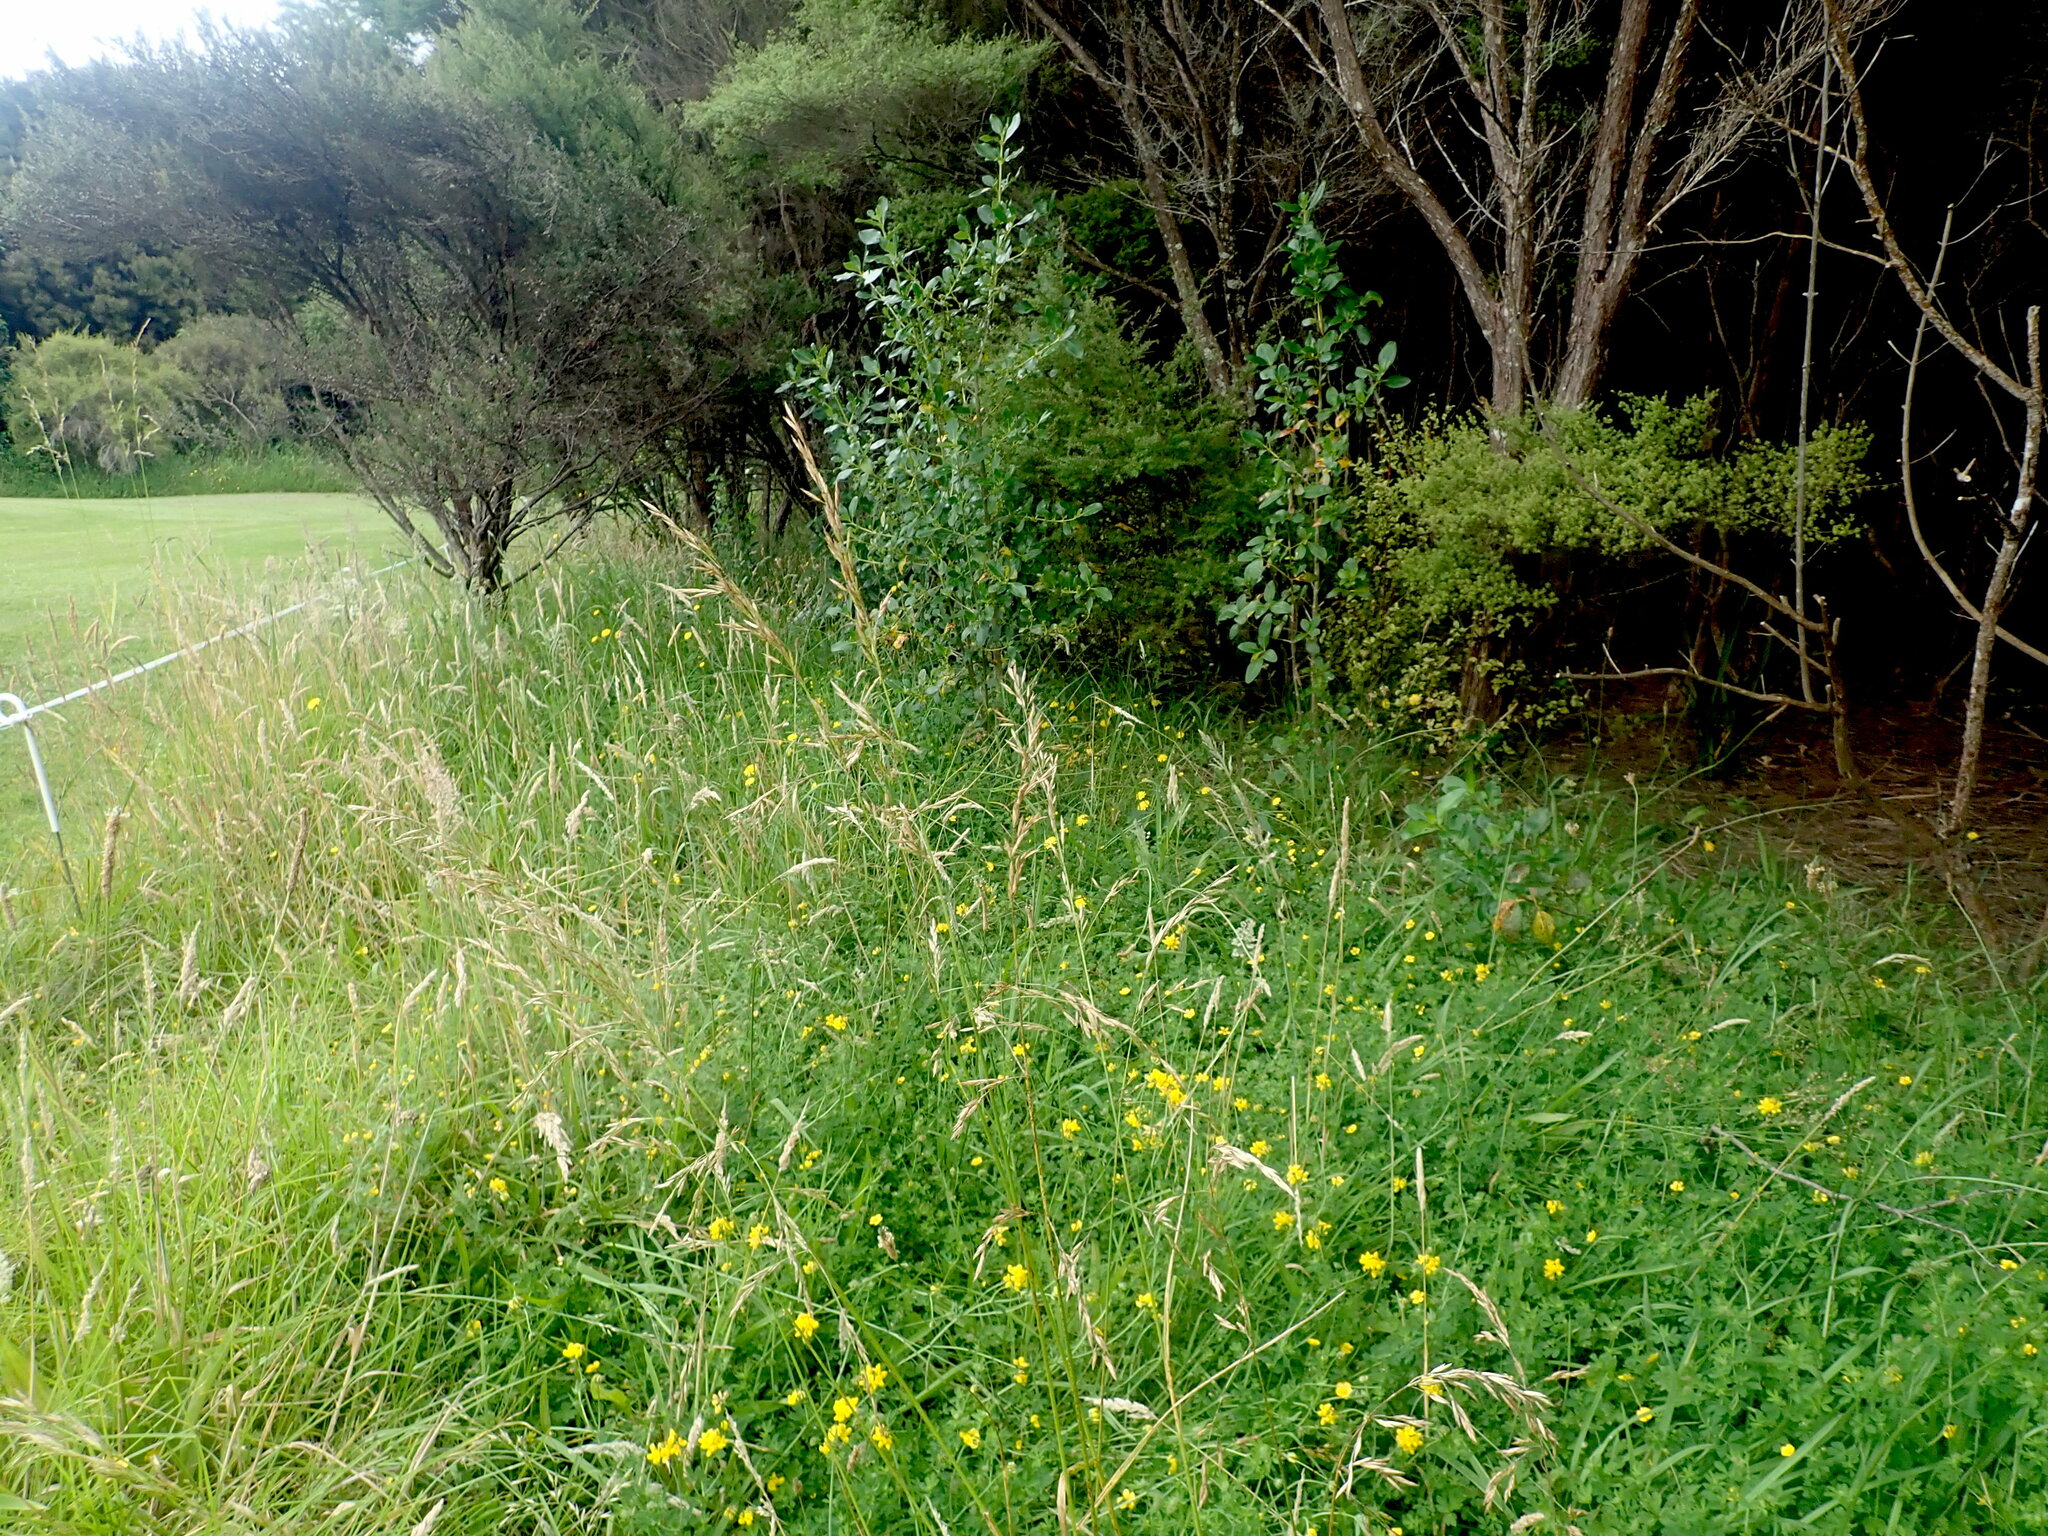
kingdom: Plantae
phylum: Tracheophyta
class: Magnoliopsida
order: Gentianales
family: Rubiaceae
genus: Coprosma
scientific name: Coprosma robusta
